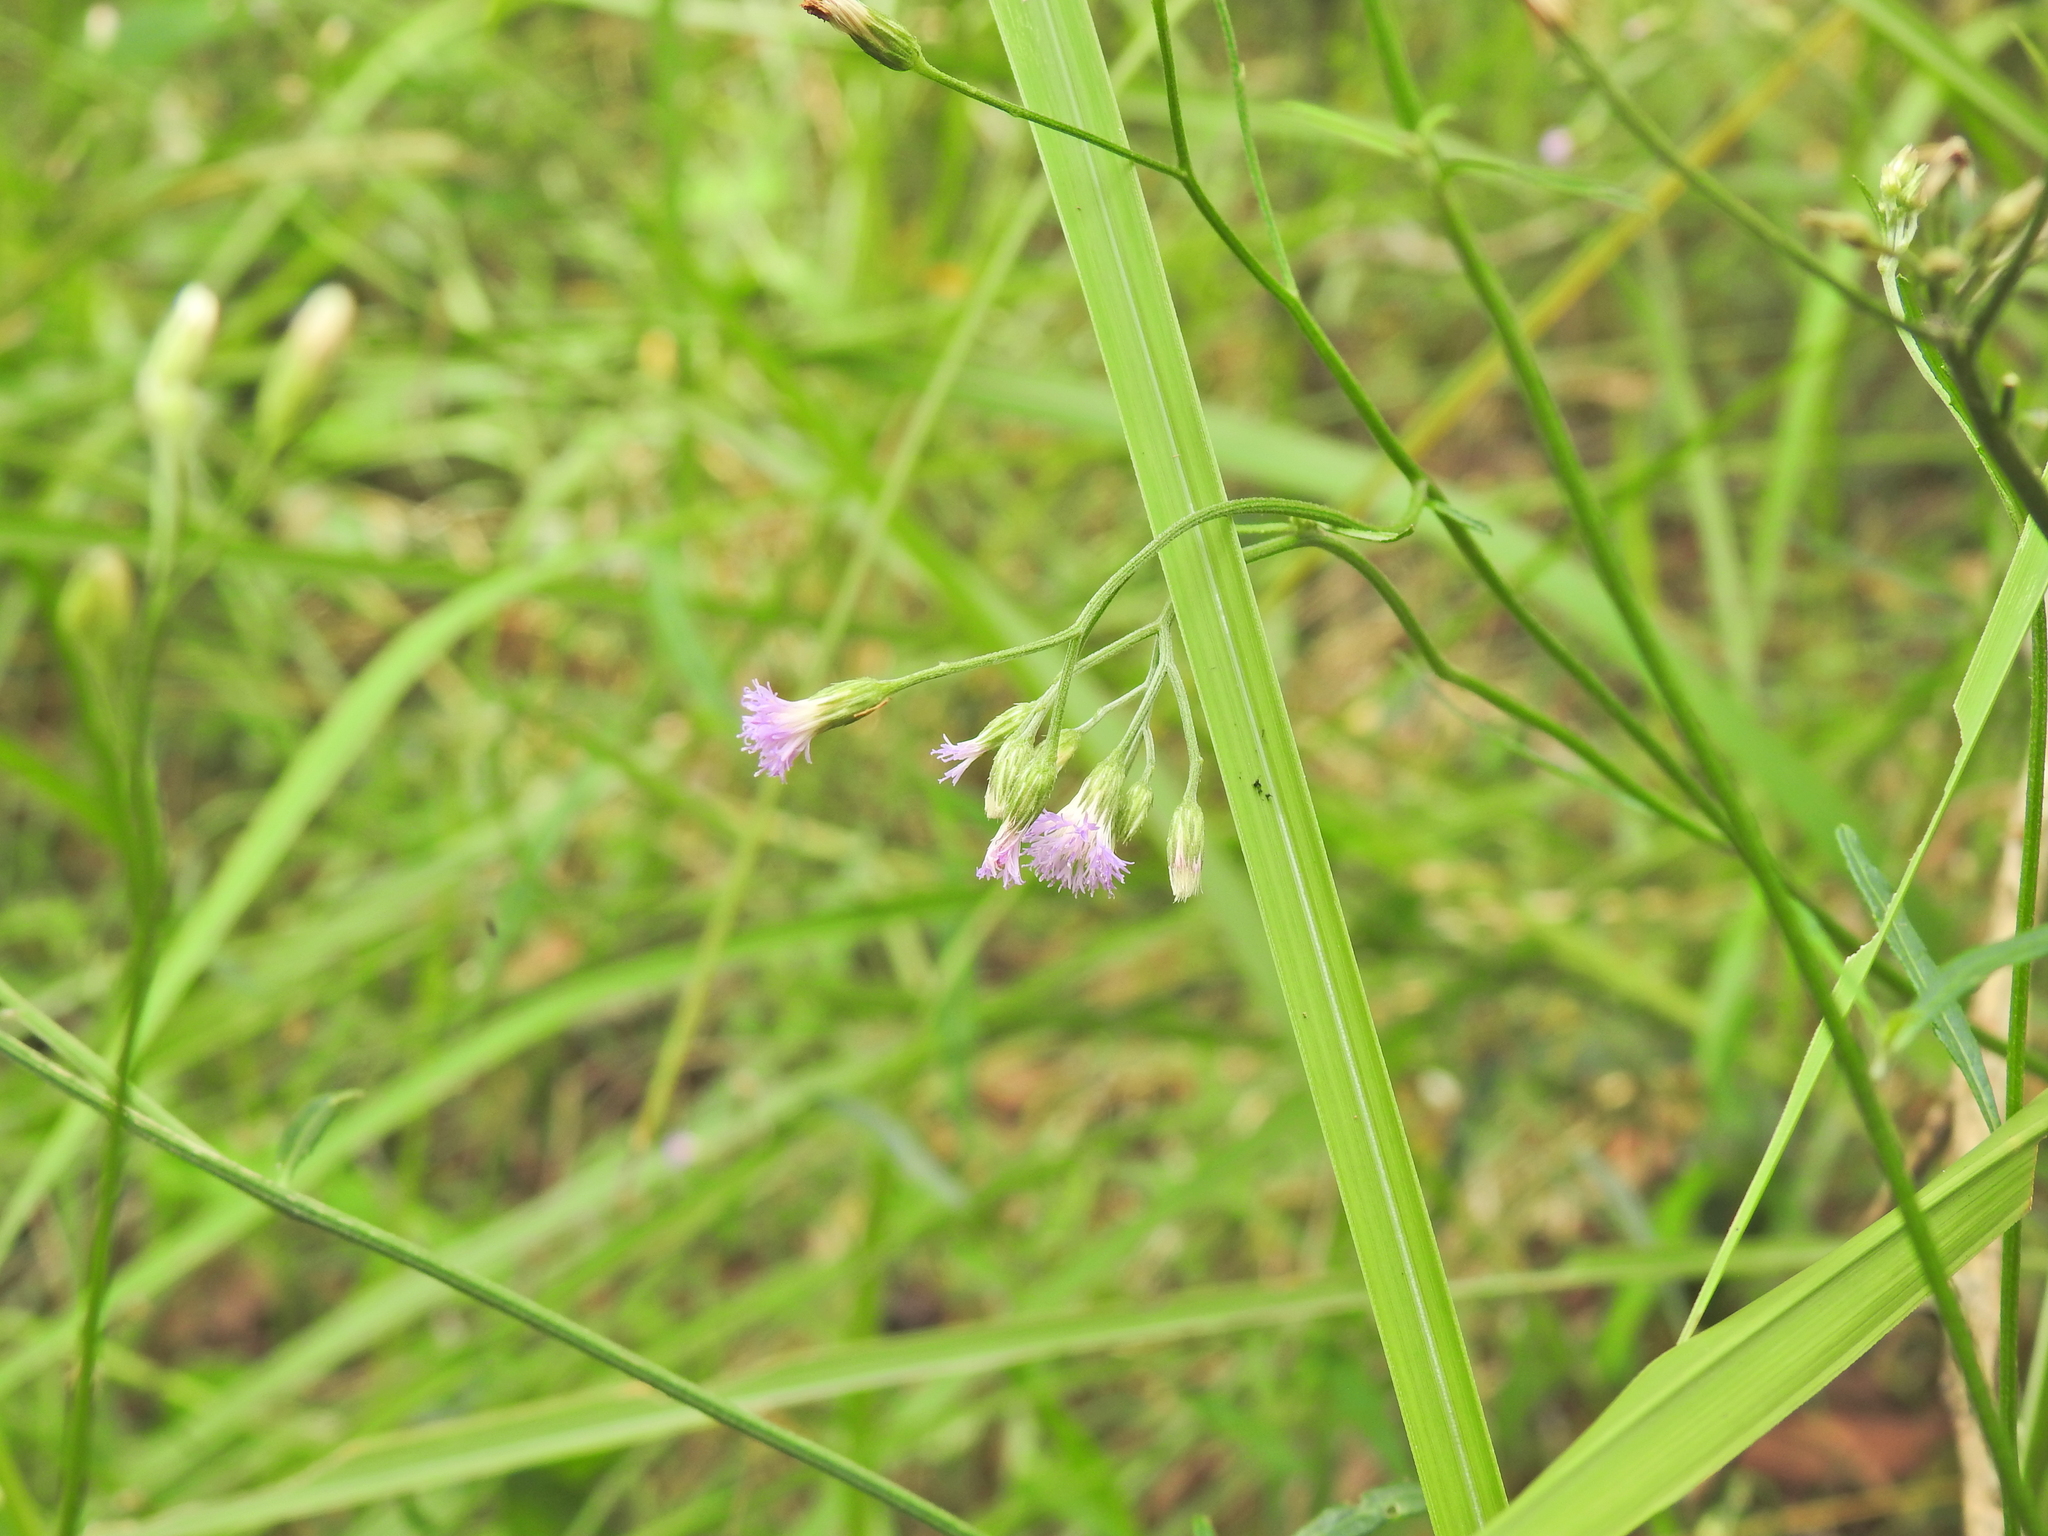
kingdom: Plantae
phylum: Tracheophyta
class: Magnoliopsida
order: Asterales
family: Asteraceae
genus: Cyanthillium
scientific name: Cyanthillium cinereum
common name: Little ironweed
